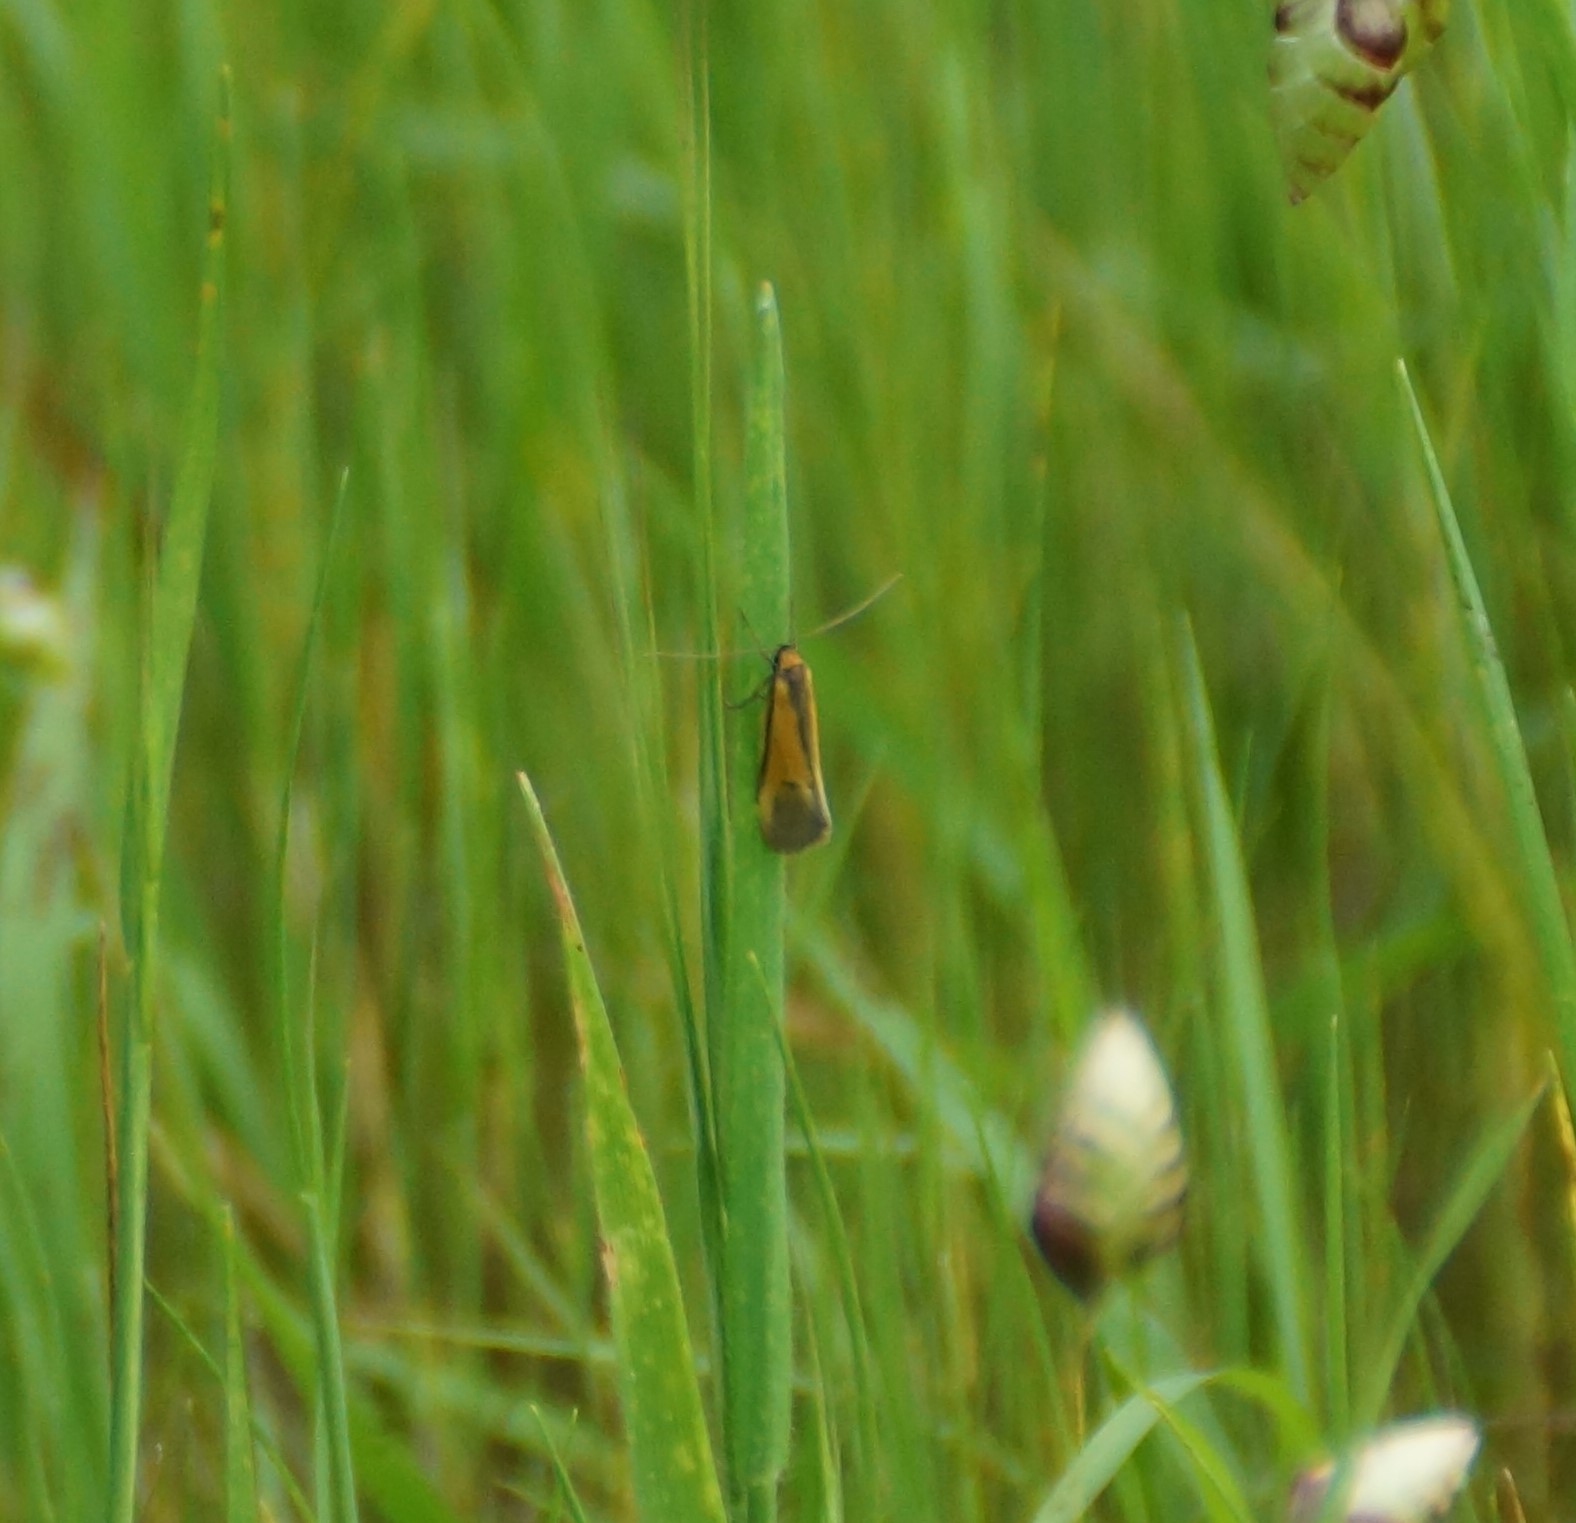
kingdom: Animalia
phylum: Arthropoda
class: Insecta
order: Lepidoptera
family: Oecophoridae
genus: Philobota
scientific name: Philobota arabella
